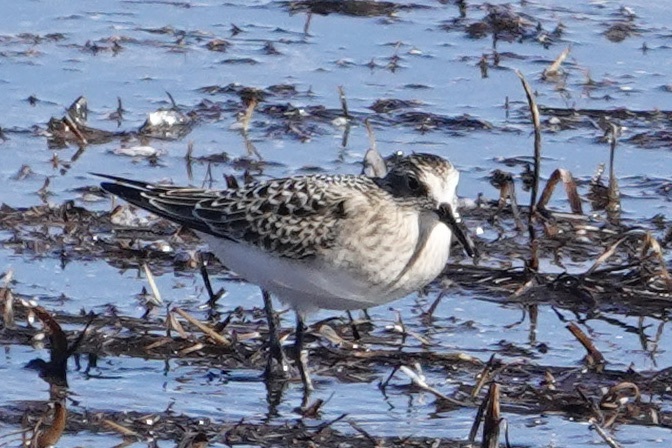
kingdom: Animalia
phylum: Chordata
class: Aves
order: Charadriiformes
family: Scolopacidae
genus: Calidris
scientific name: Calidris bairdii
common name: Baird's sandpiper
